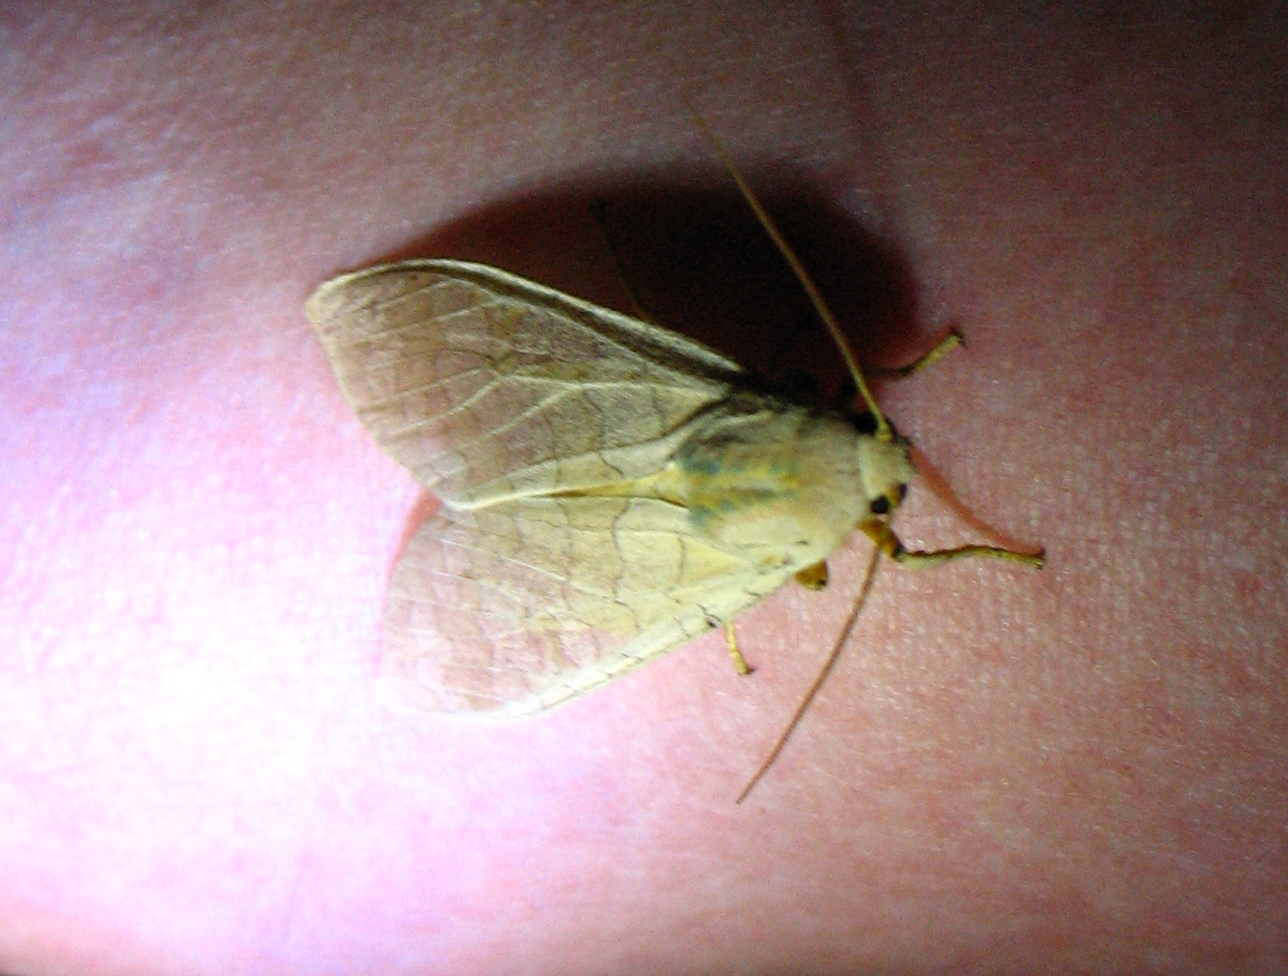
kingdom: Animalia
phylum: Arthropoda
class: Insecta
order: Lepidoptera
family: Erebidae
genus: Halysidota
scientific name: Halysidota
